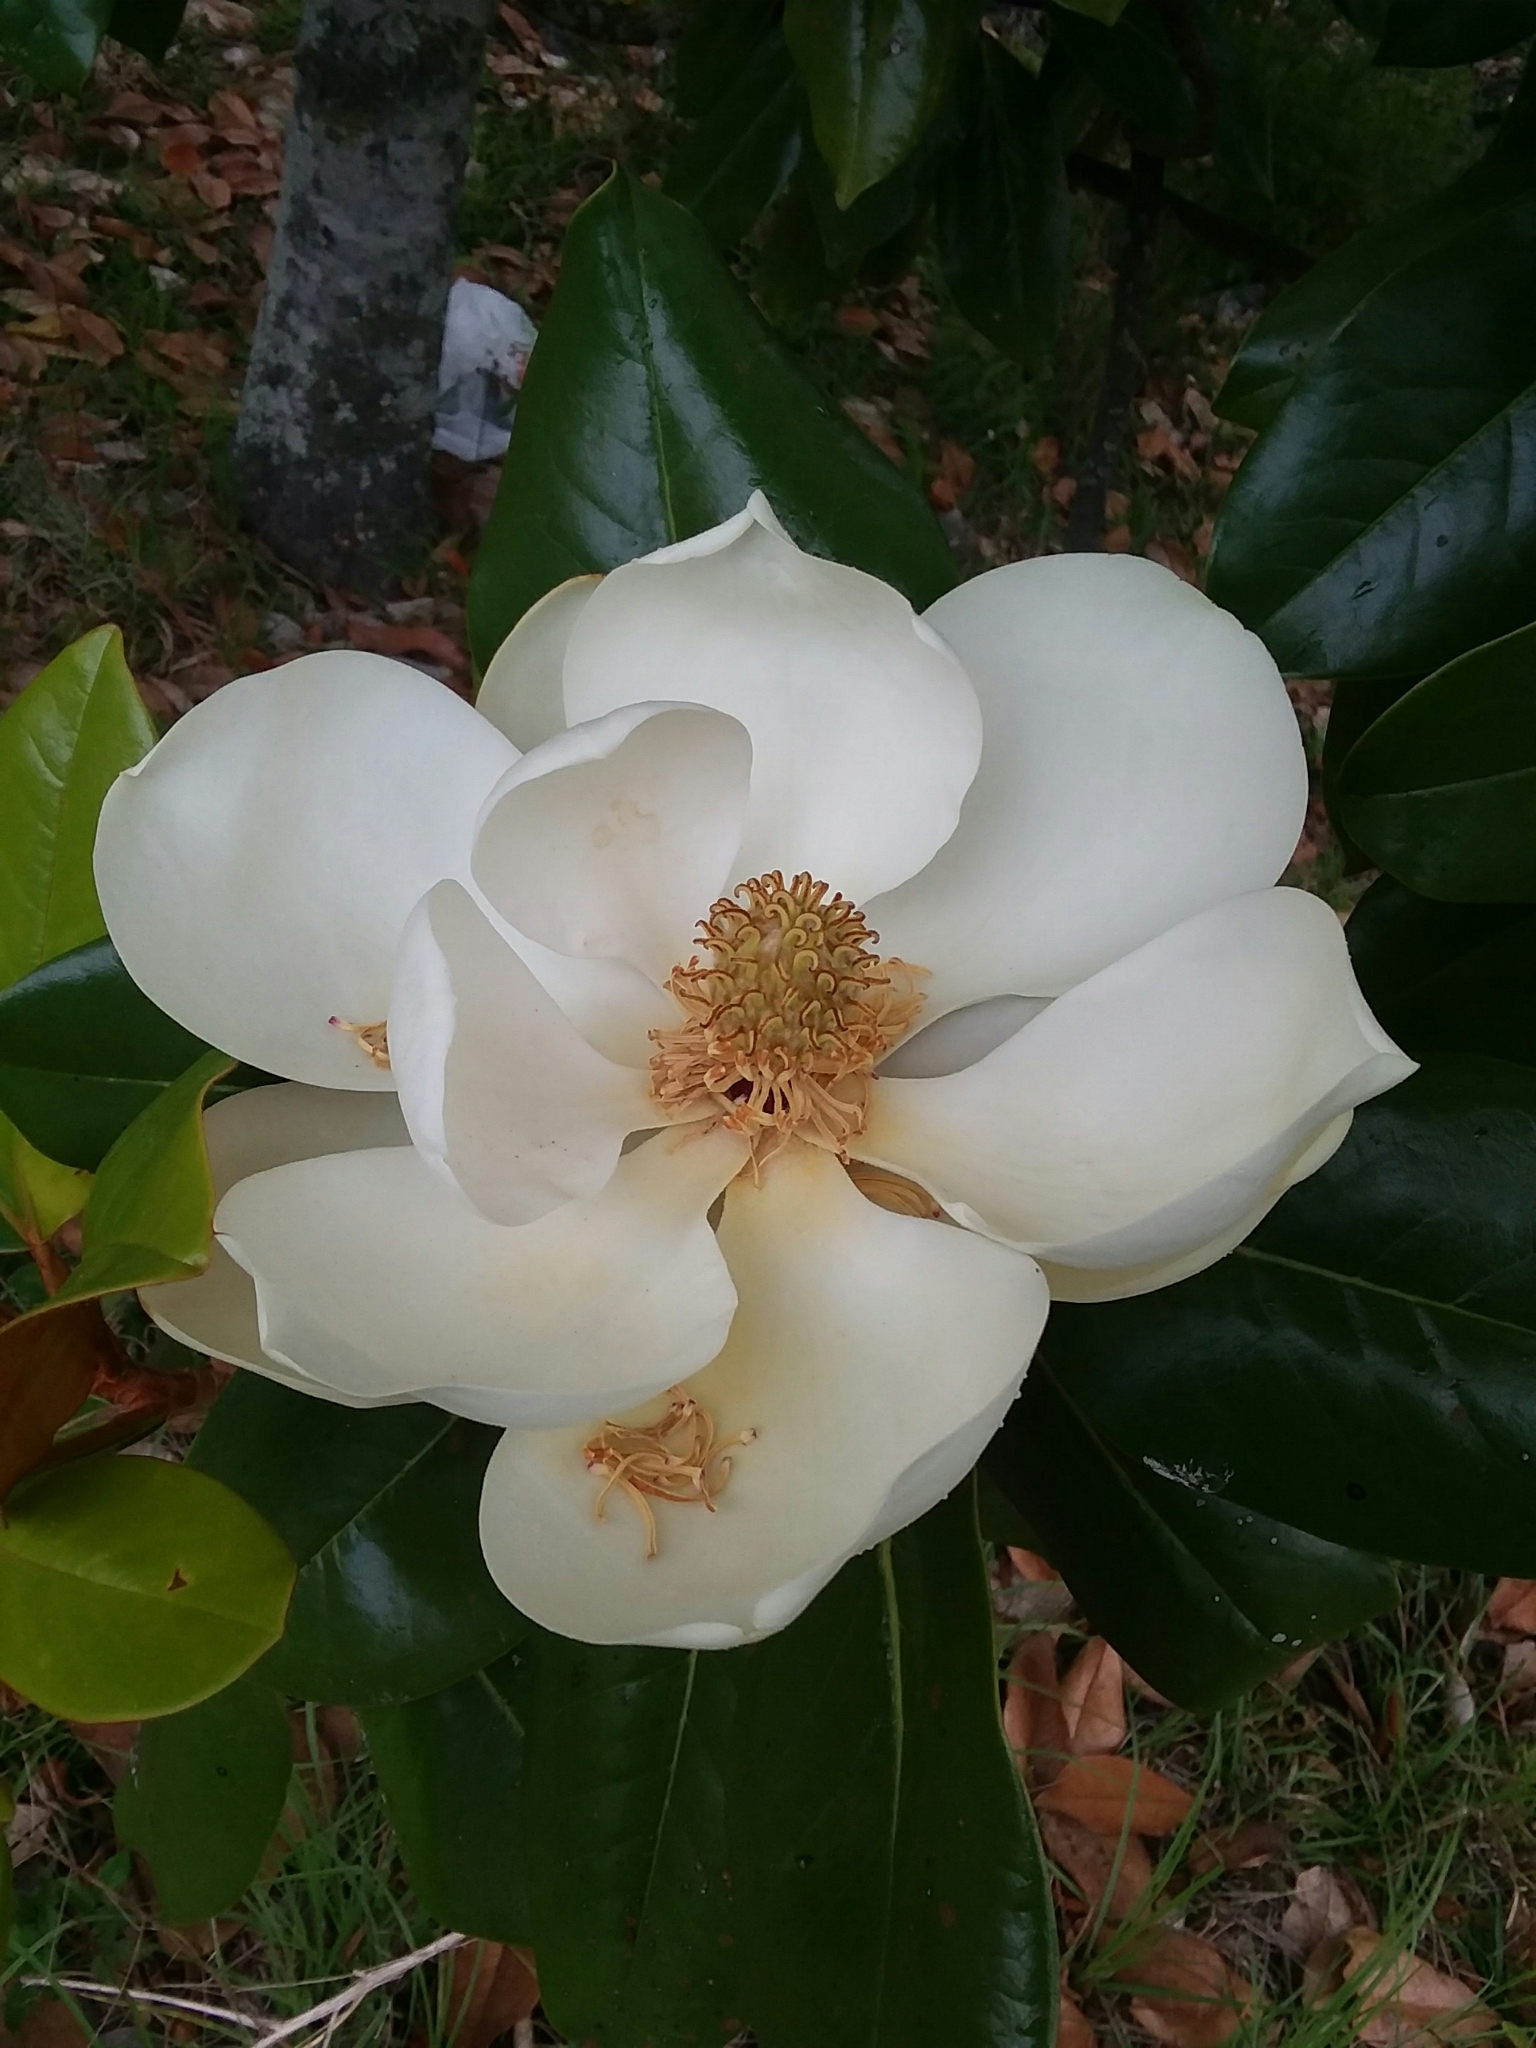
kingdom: Plantae
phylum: Tracheophyta
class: Magnoliopsida
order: Magnoliales
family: Magnoliaceae
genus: Magnolia
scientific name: Magnolia grandiflora
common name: Southern magnolia
